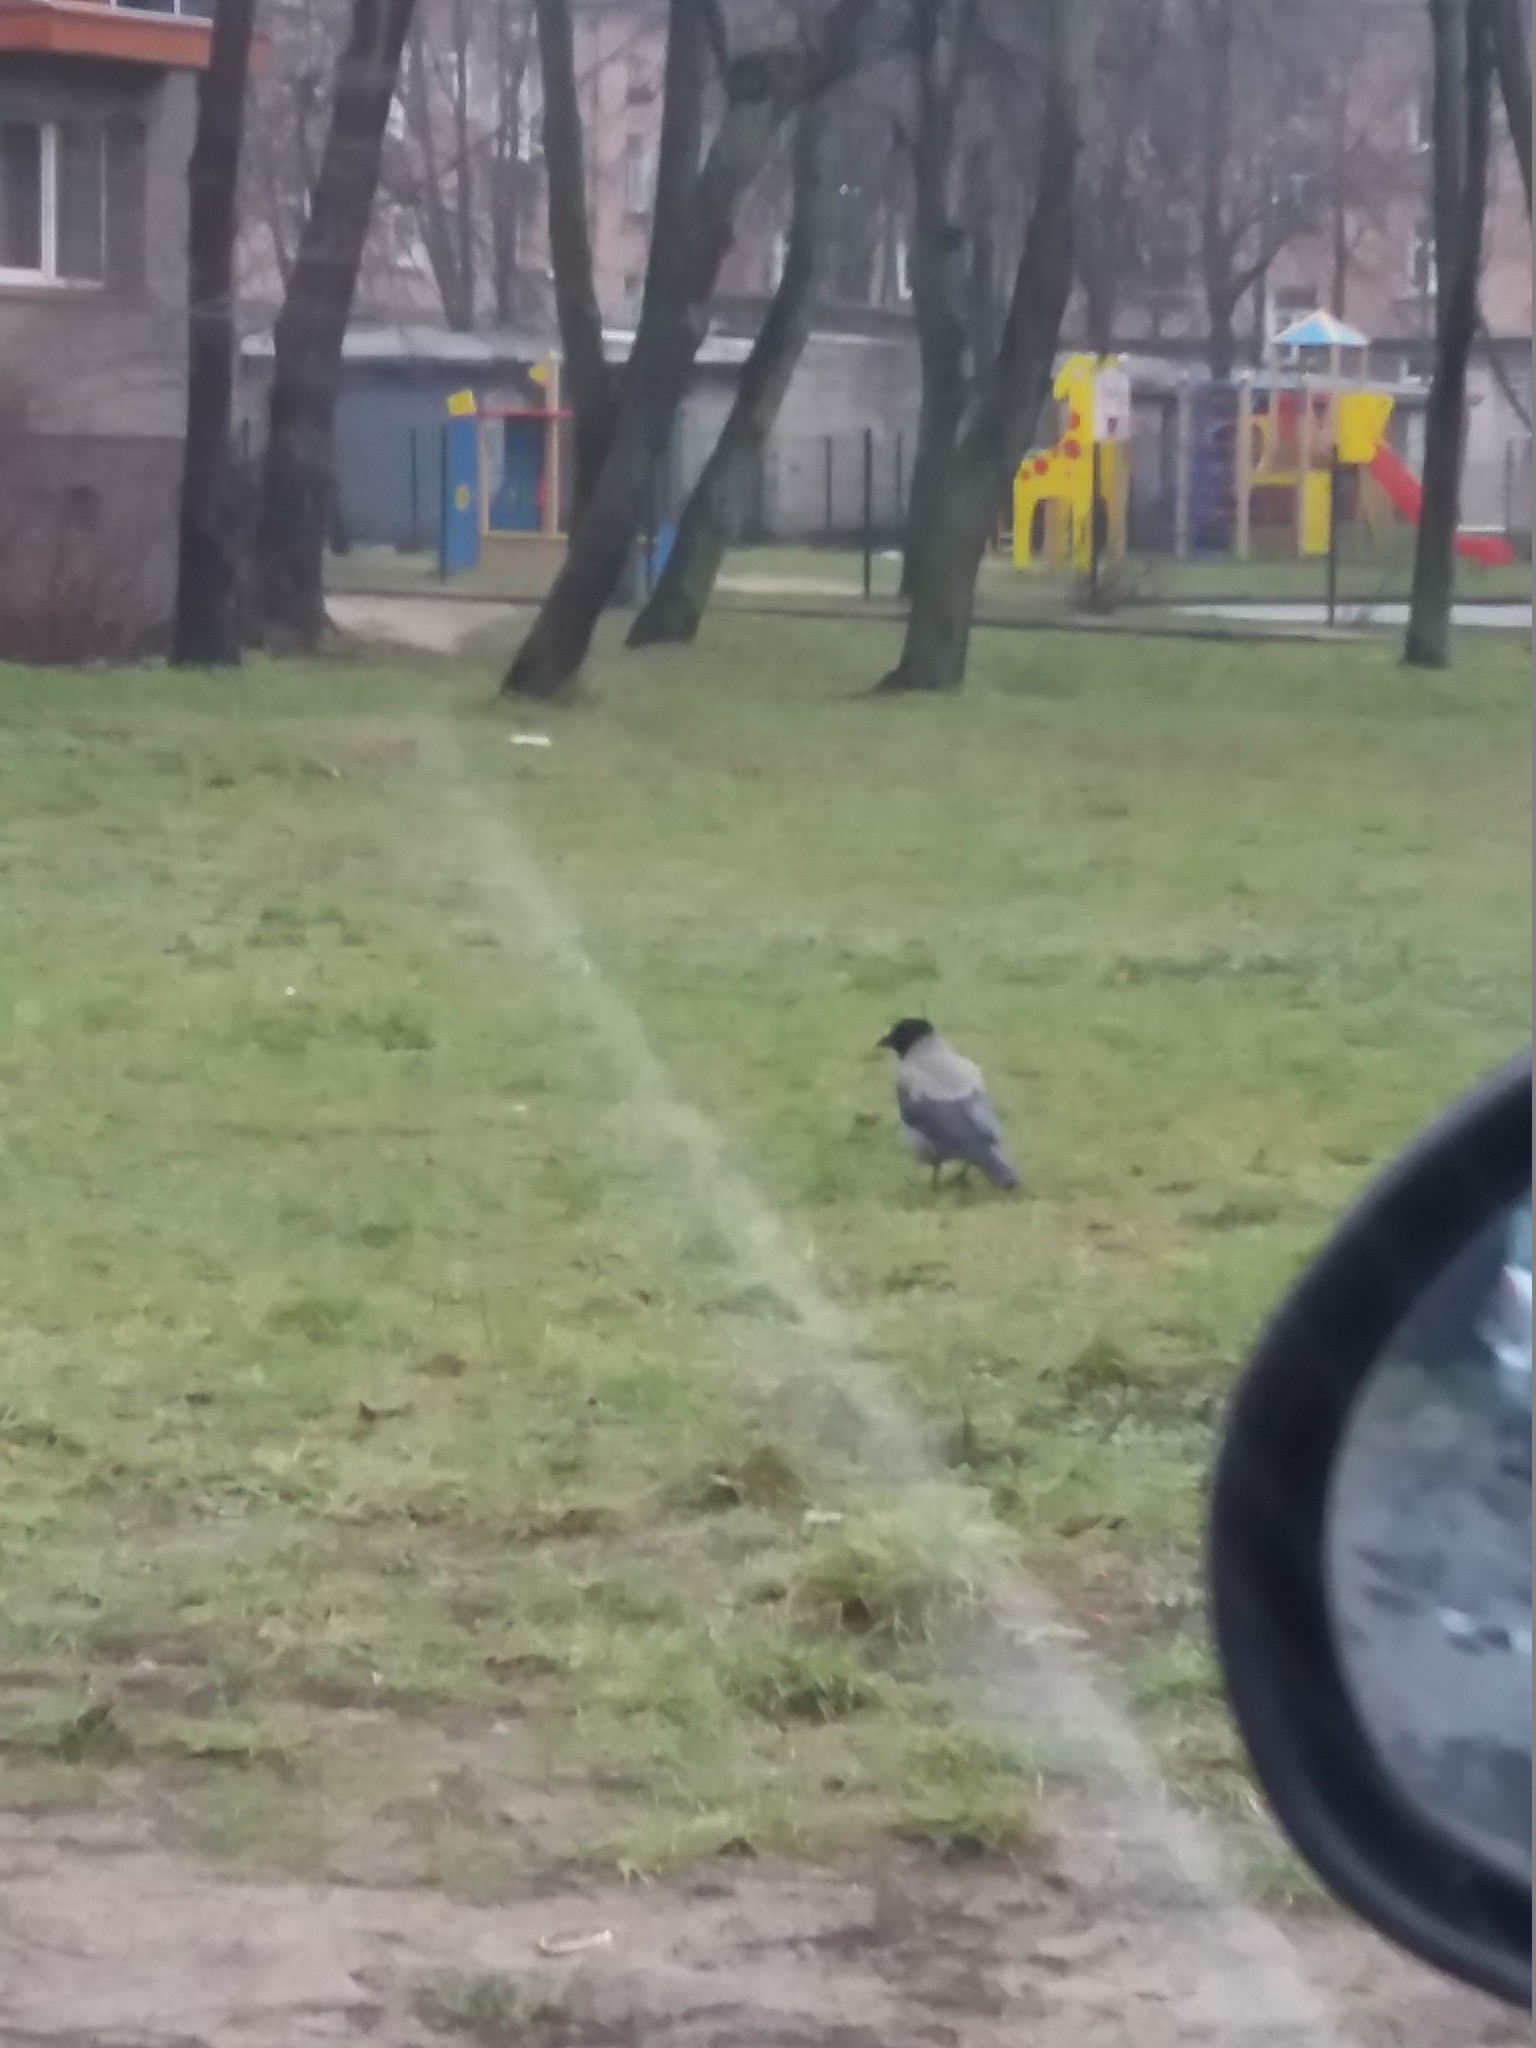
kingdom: Animalia
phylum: Chordata
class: Aves
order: Passeriformes
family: Corvidae
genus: Corvus
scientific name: Corvus cornix
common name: Hooded crow
